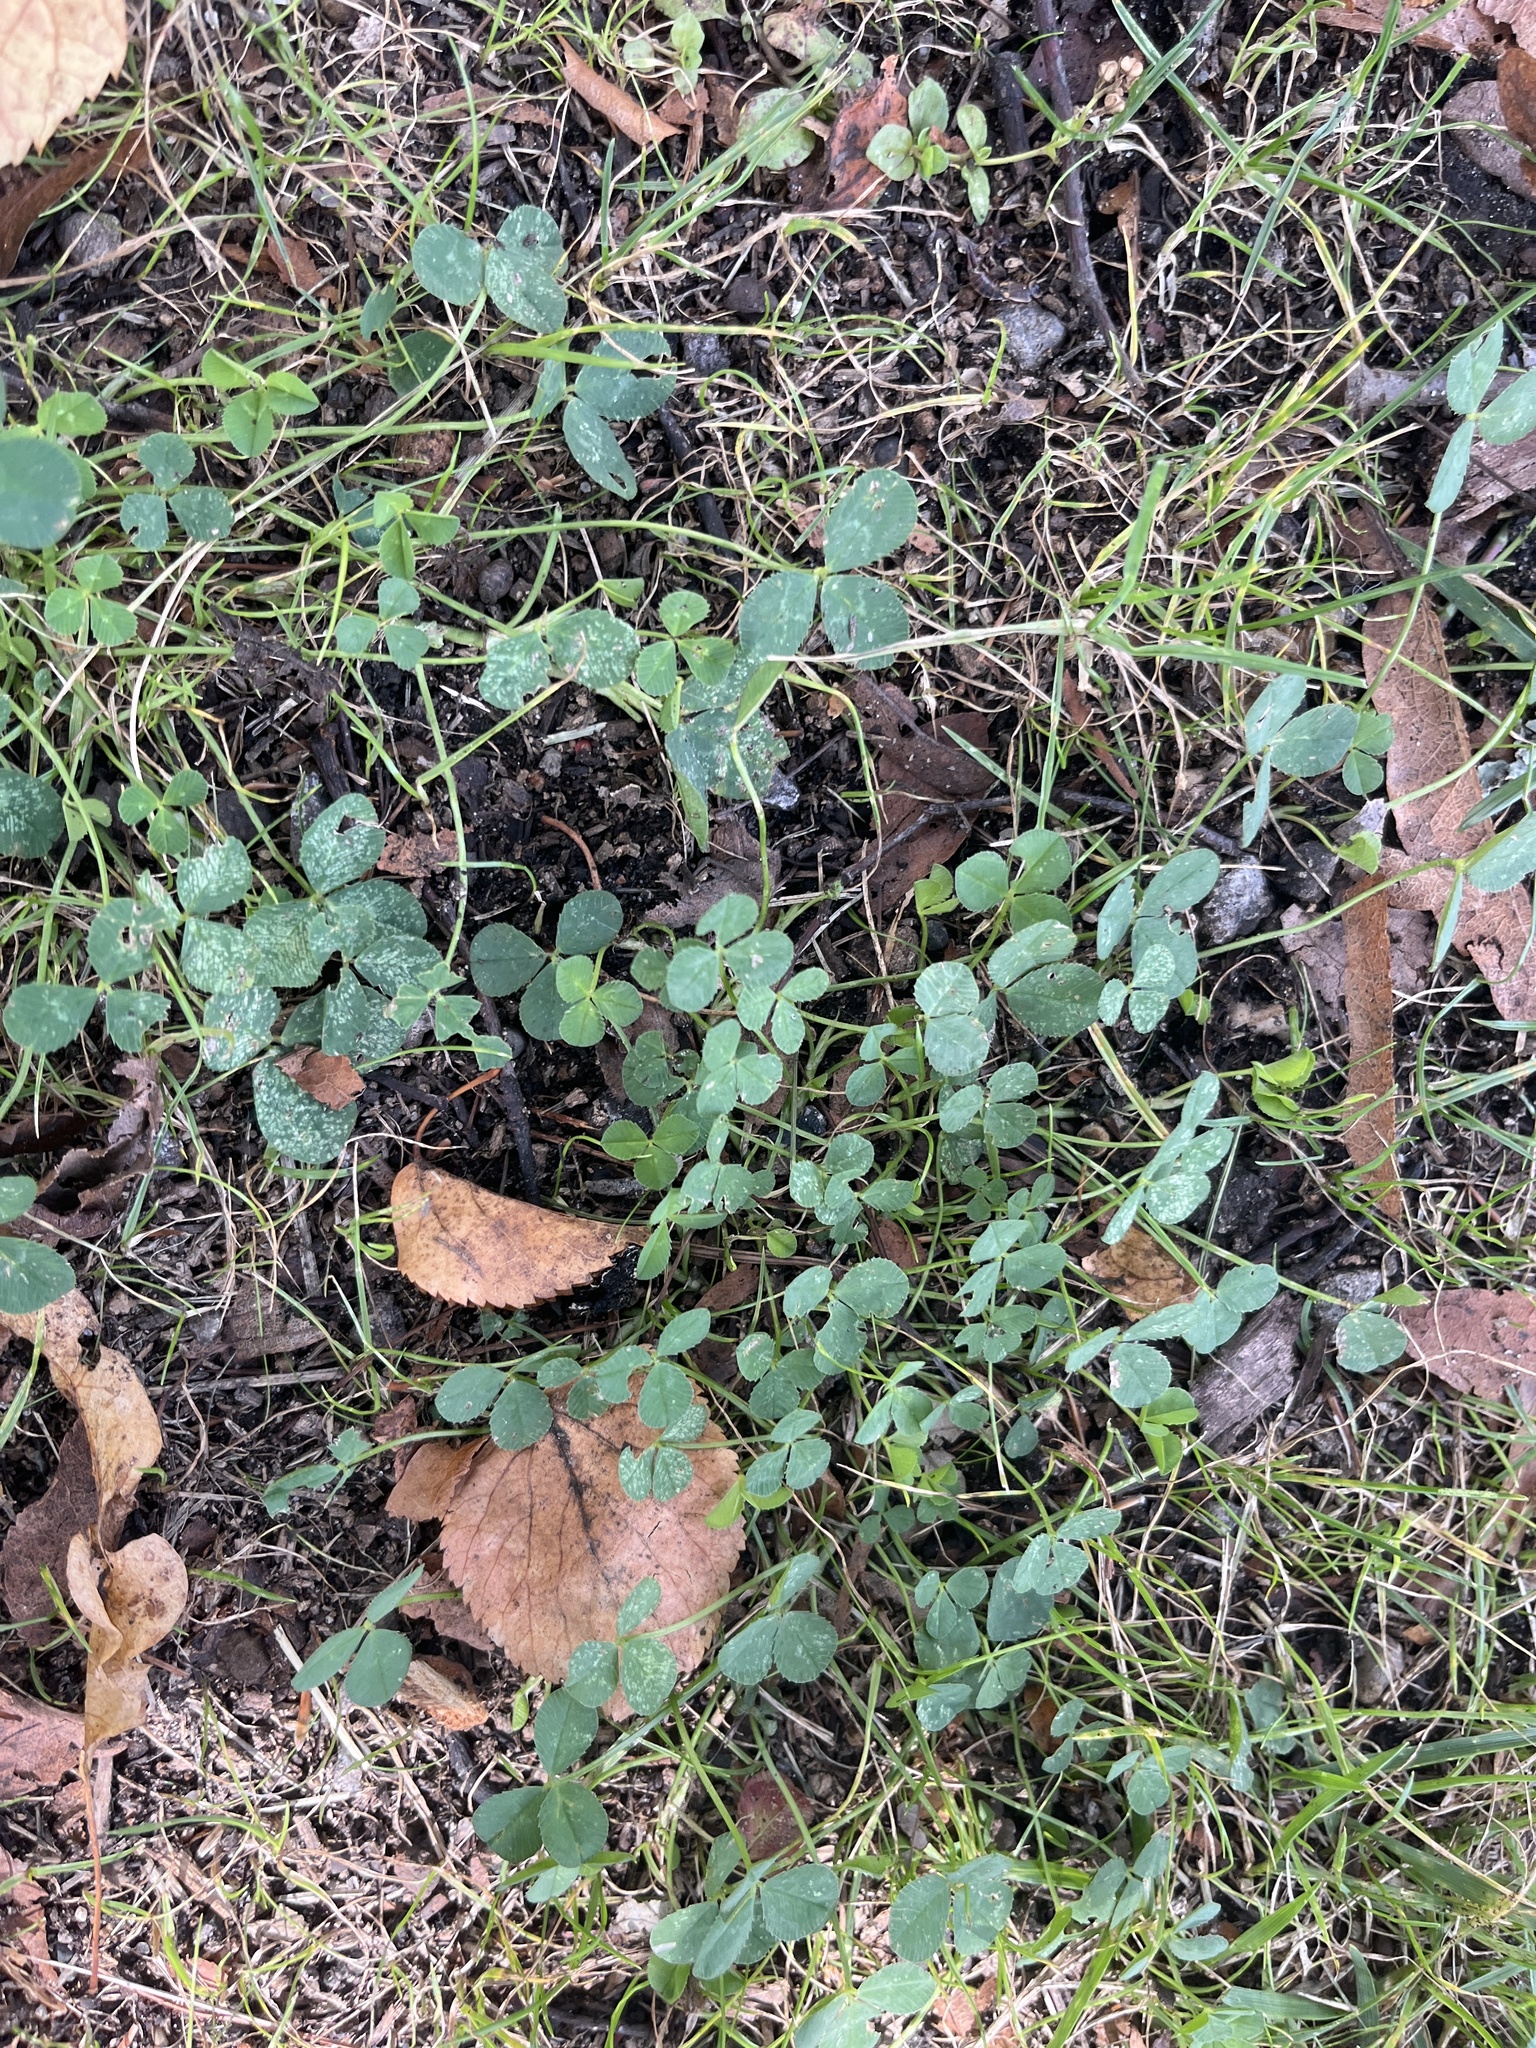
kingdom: Plantae
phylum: Tracheophyta
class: Magnoliopsida
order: Fabales
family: Fabaceae
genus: Trifolium
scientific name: Trifolium repens
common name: White clover
